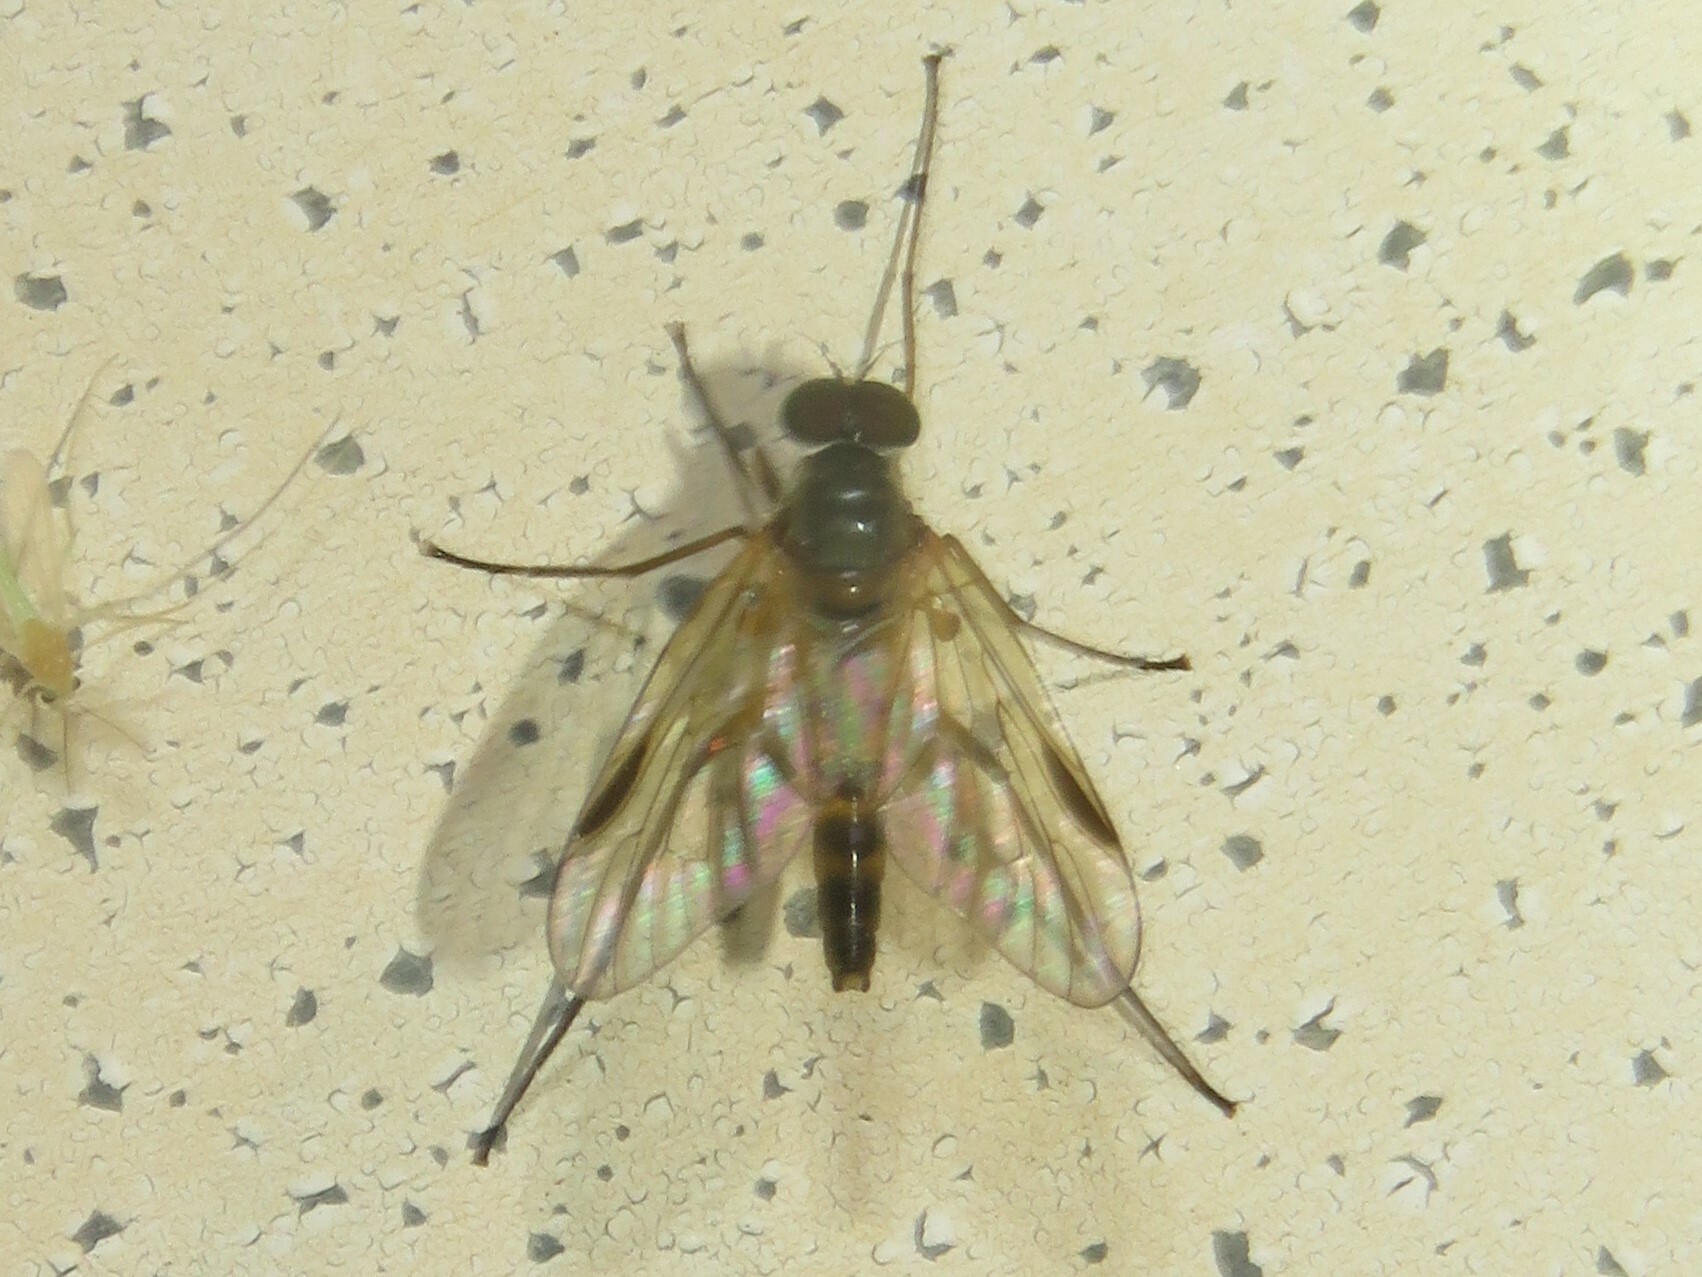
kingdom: Animalia
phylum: Arthropoda
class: Insecta
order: Diptera
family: Rhagionidae
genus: Rhagio
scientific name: Rhagio lineola
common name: Small fleck-winged snipefly
